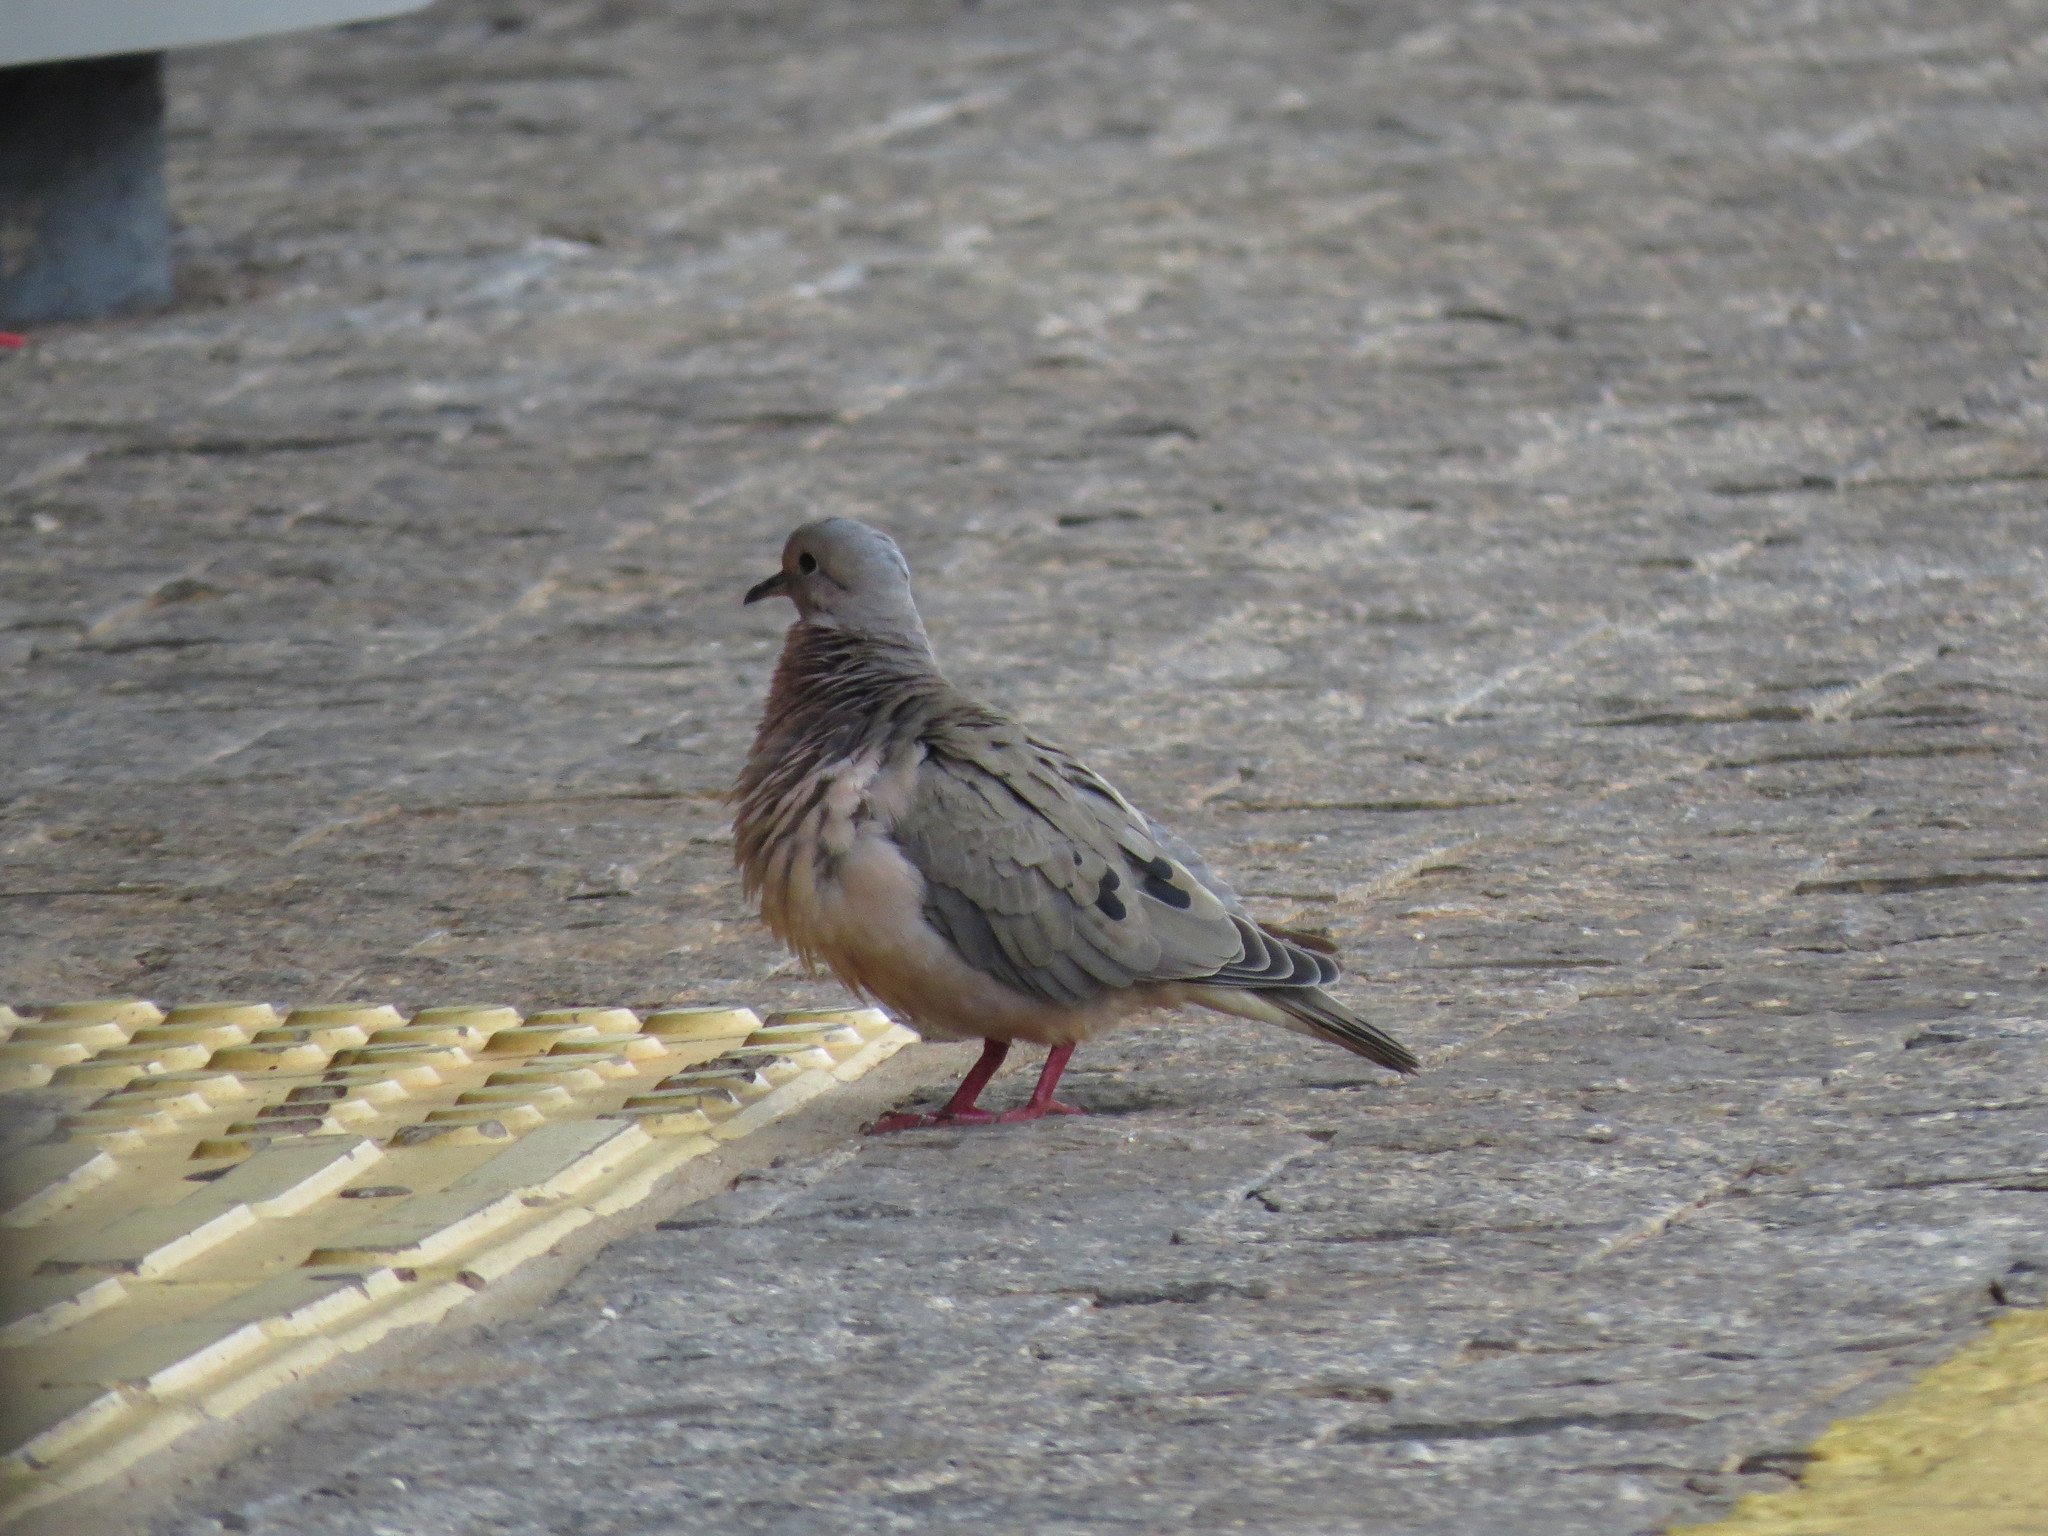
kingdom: Animalia
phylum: Chordata
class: Aves
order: Columbiformes
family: Columbidae
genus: Zenaida
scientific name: Zenaida auriculata
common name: Eared dove
